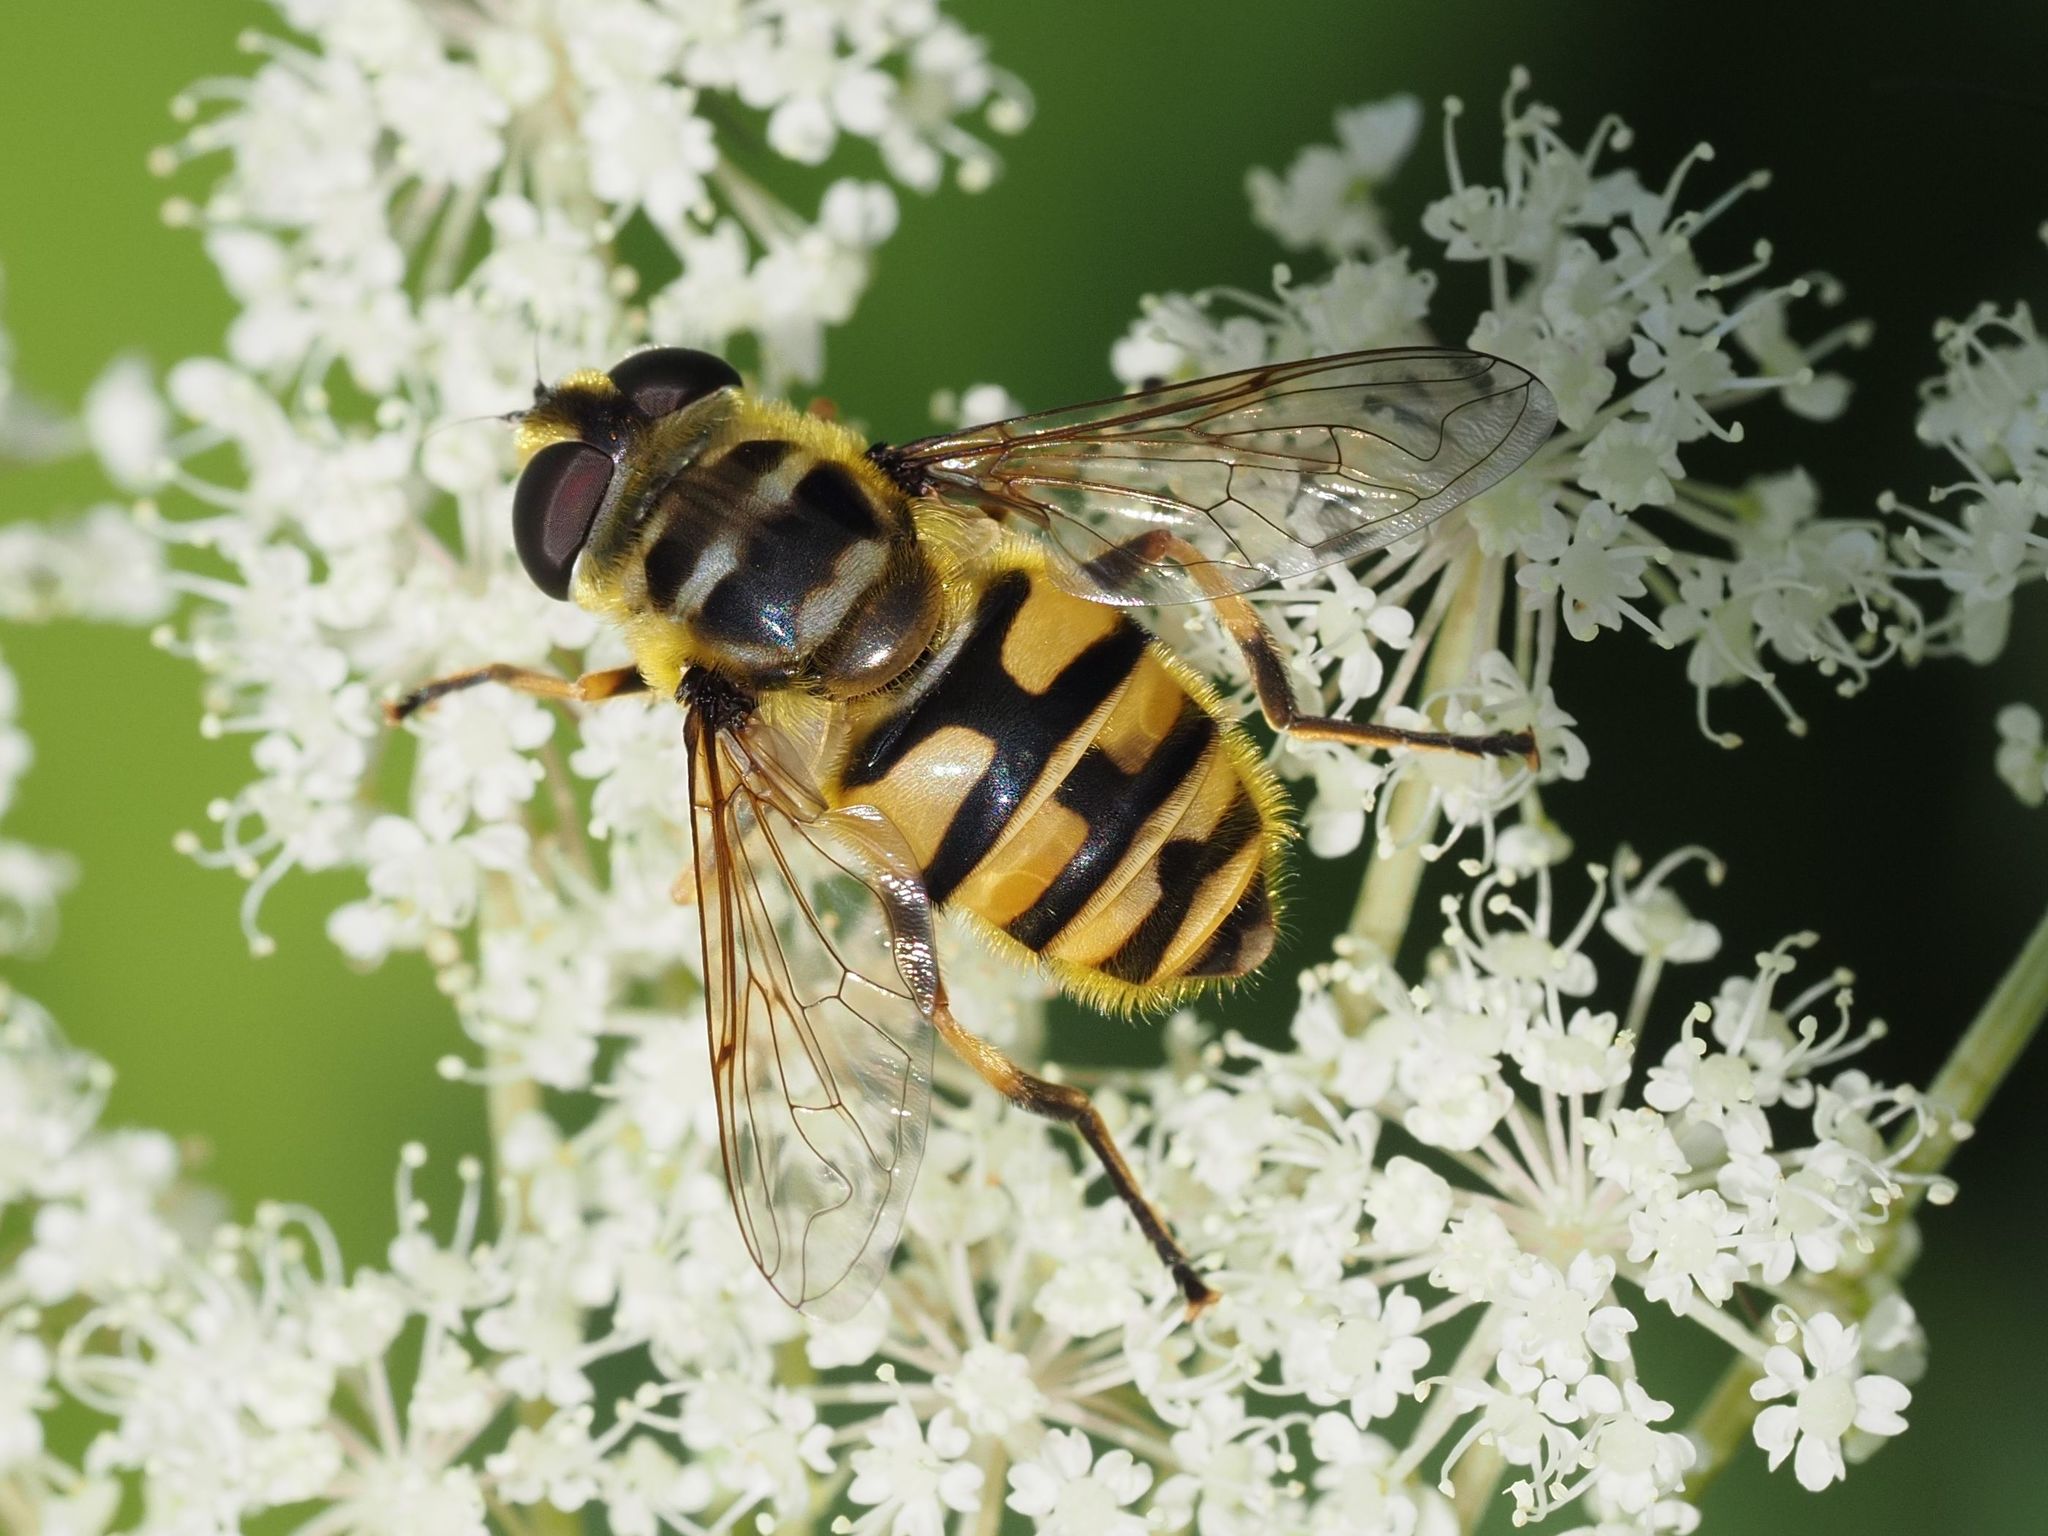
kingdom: Animalia
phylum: Arthropoda
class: Insecta
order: Diptera
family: Syrphidae
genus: Myathropa
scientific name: Myathropa florea
